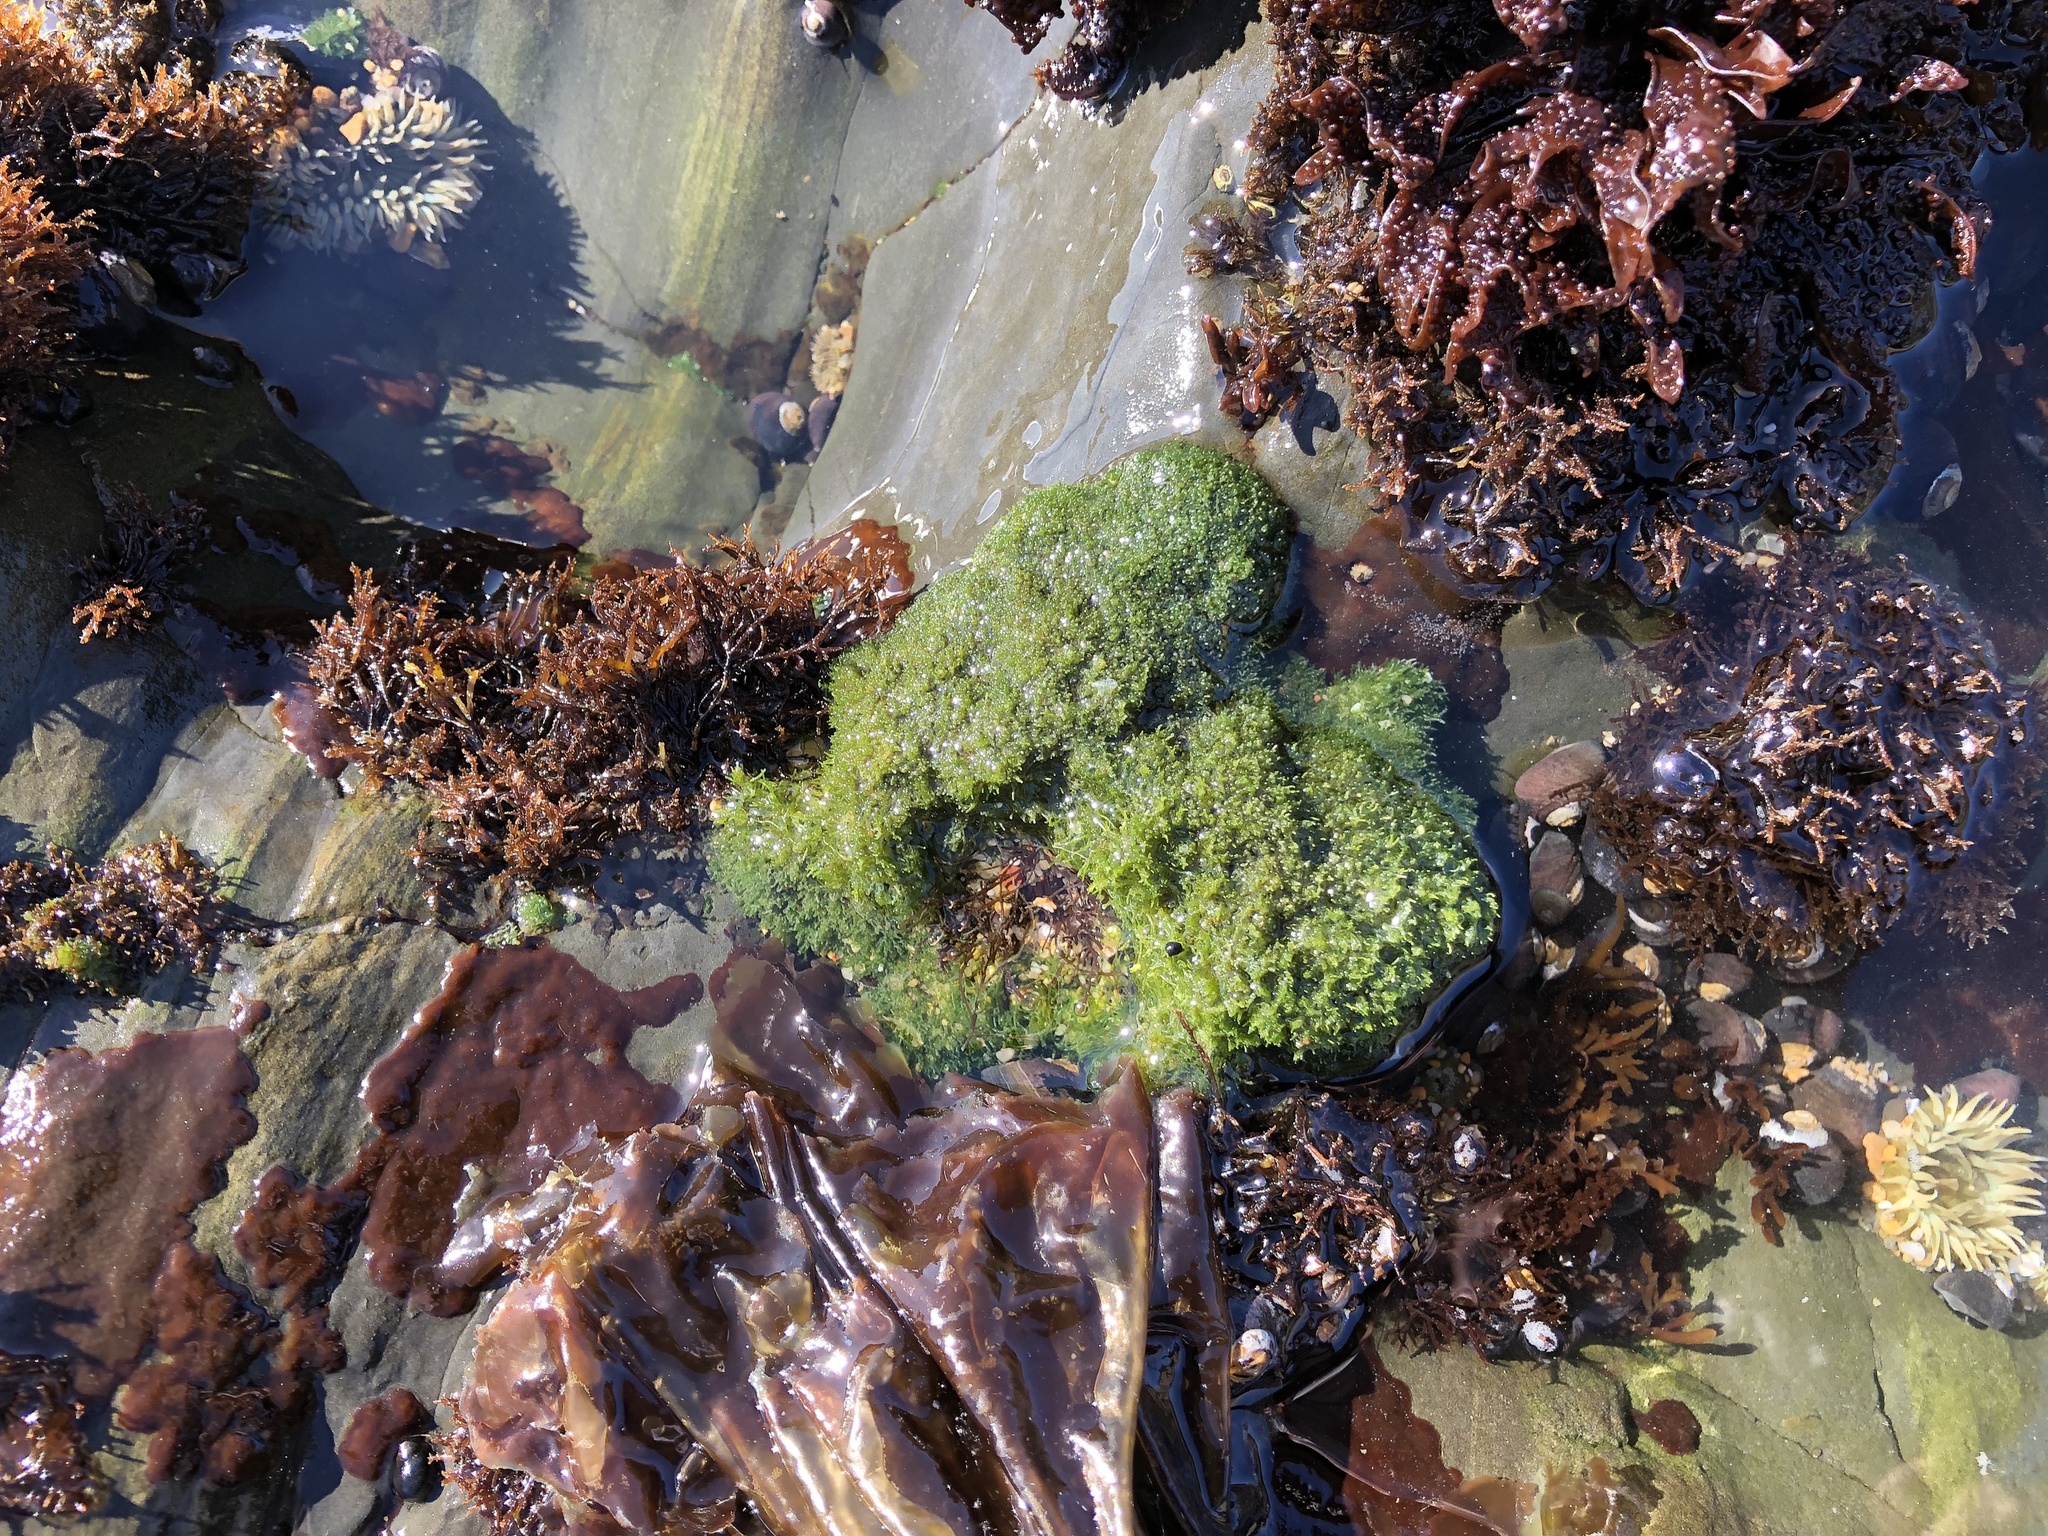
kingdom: Plantae
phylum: Chlorophyta
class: Ulvophyceae
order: Cladophorales
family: Cladophoraceae
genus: Cladophora
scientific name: Cladophora columbiana
